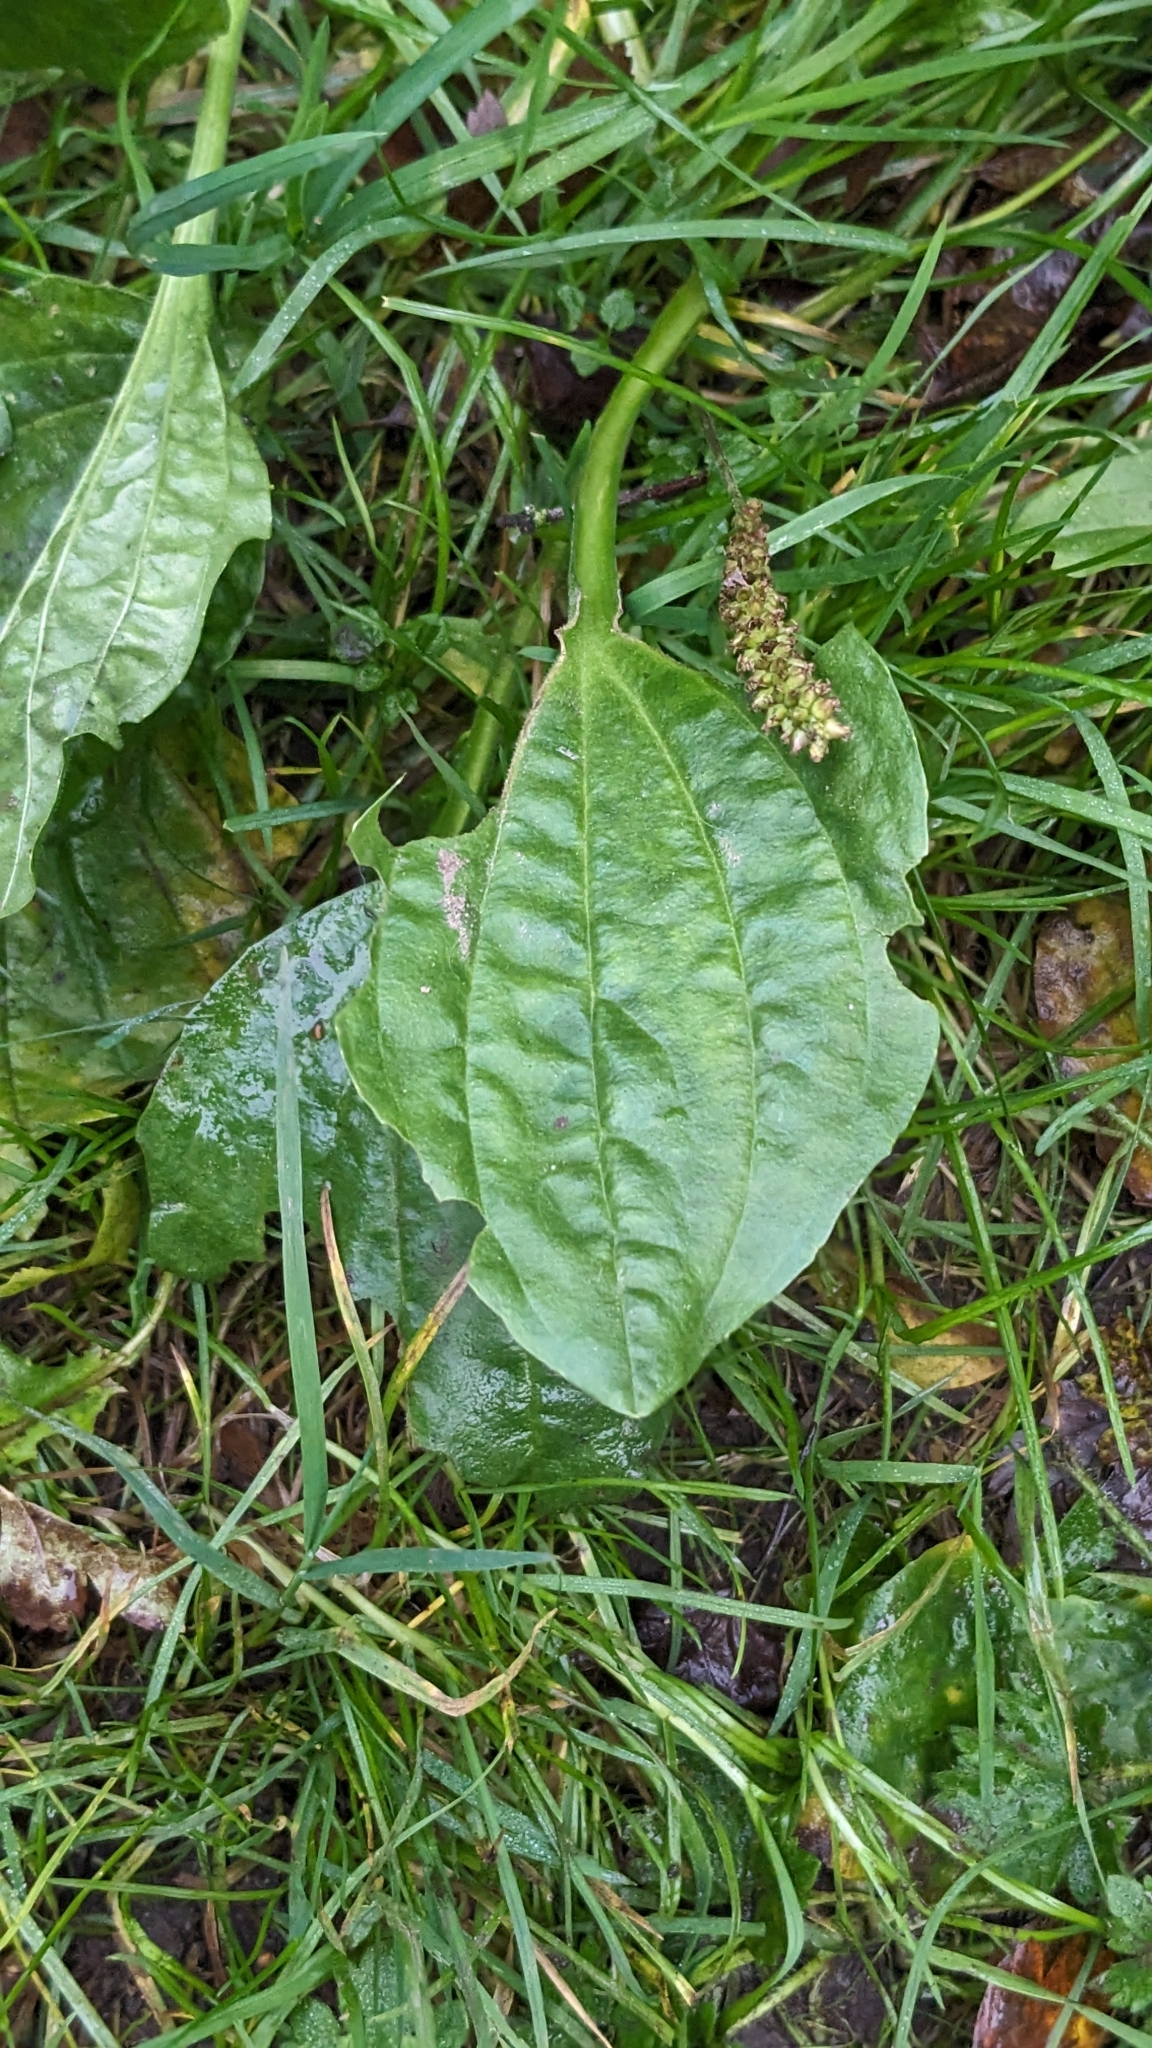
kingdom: Plantae
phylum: Tracheophyta
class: Magnoliopsida
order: Lamiales
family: Plantaginaceae
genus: Plantago
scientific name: Plantago major
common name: Common plantain
